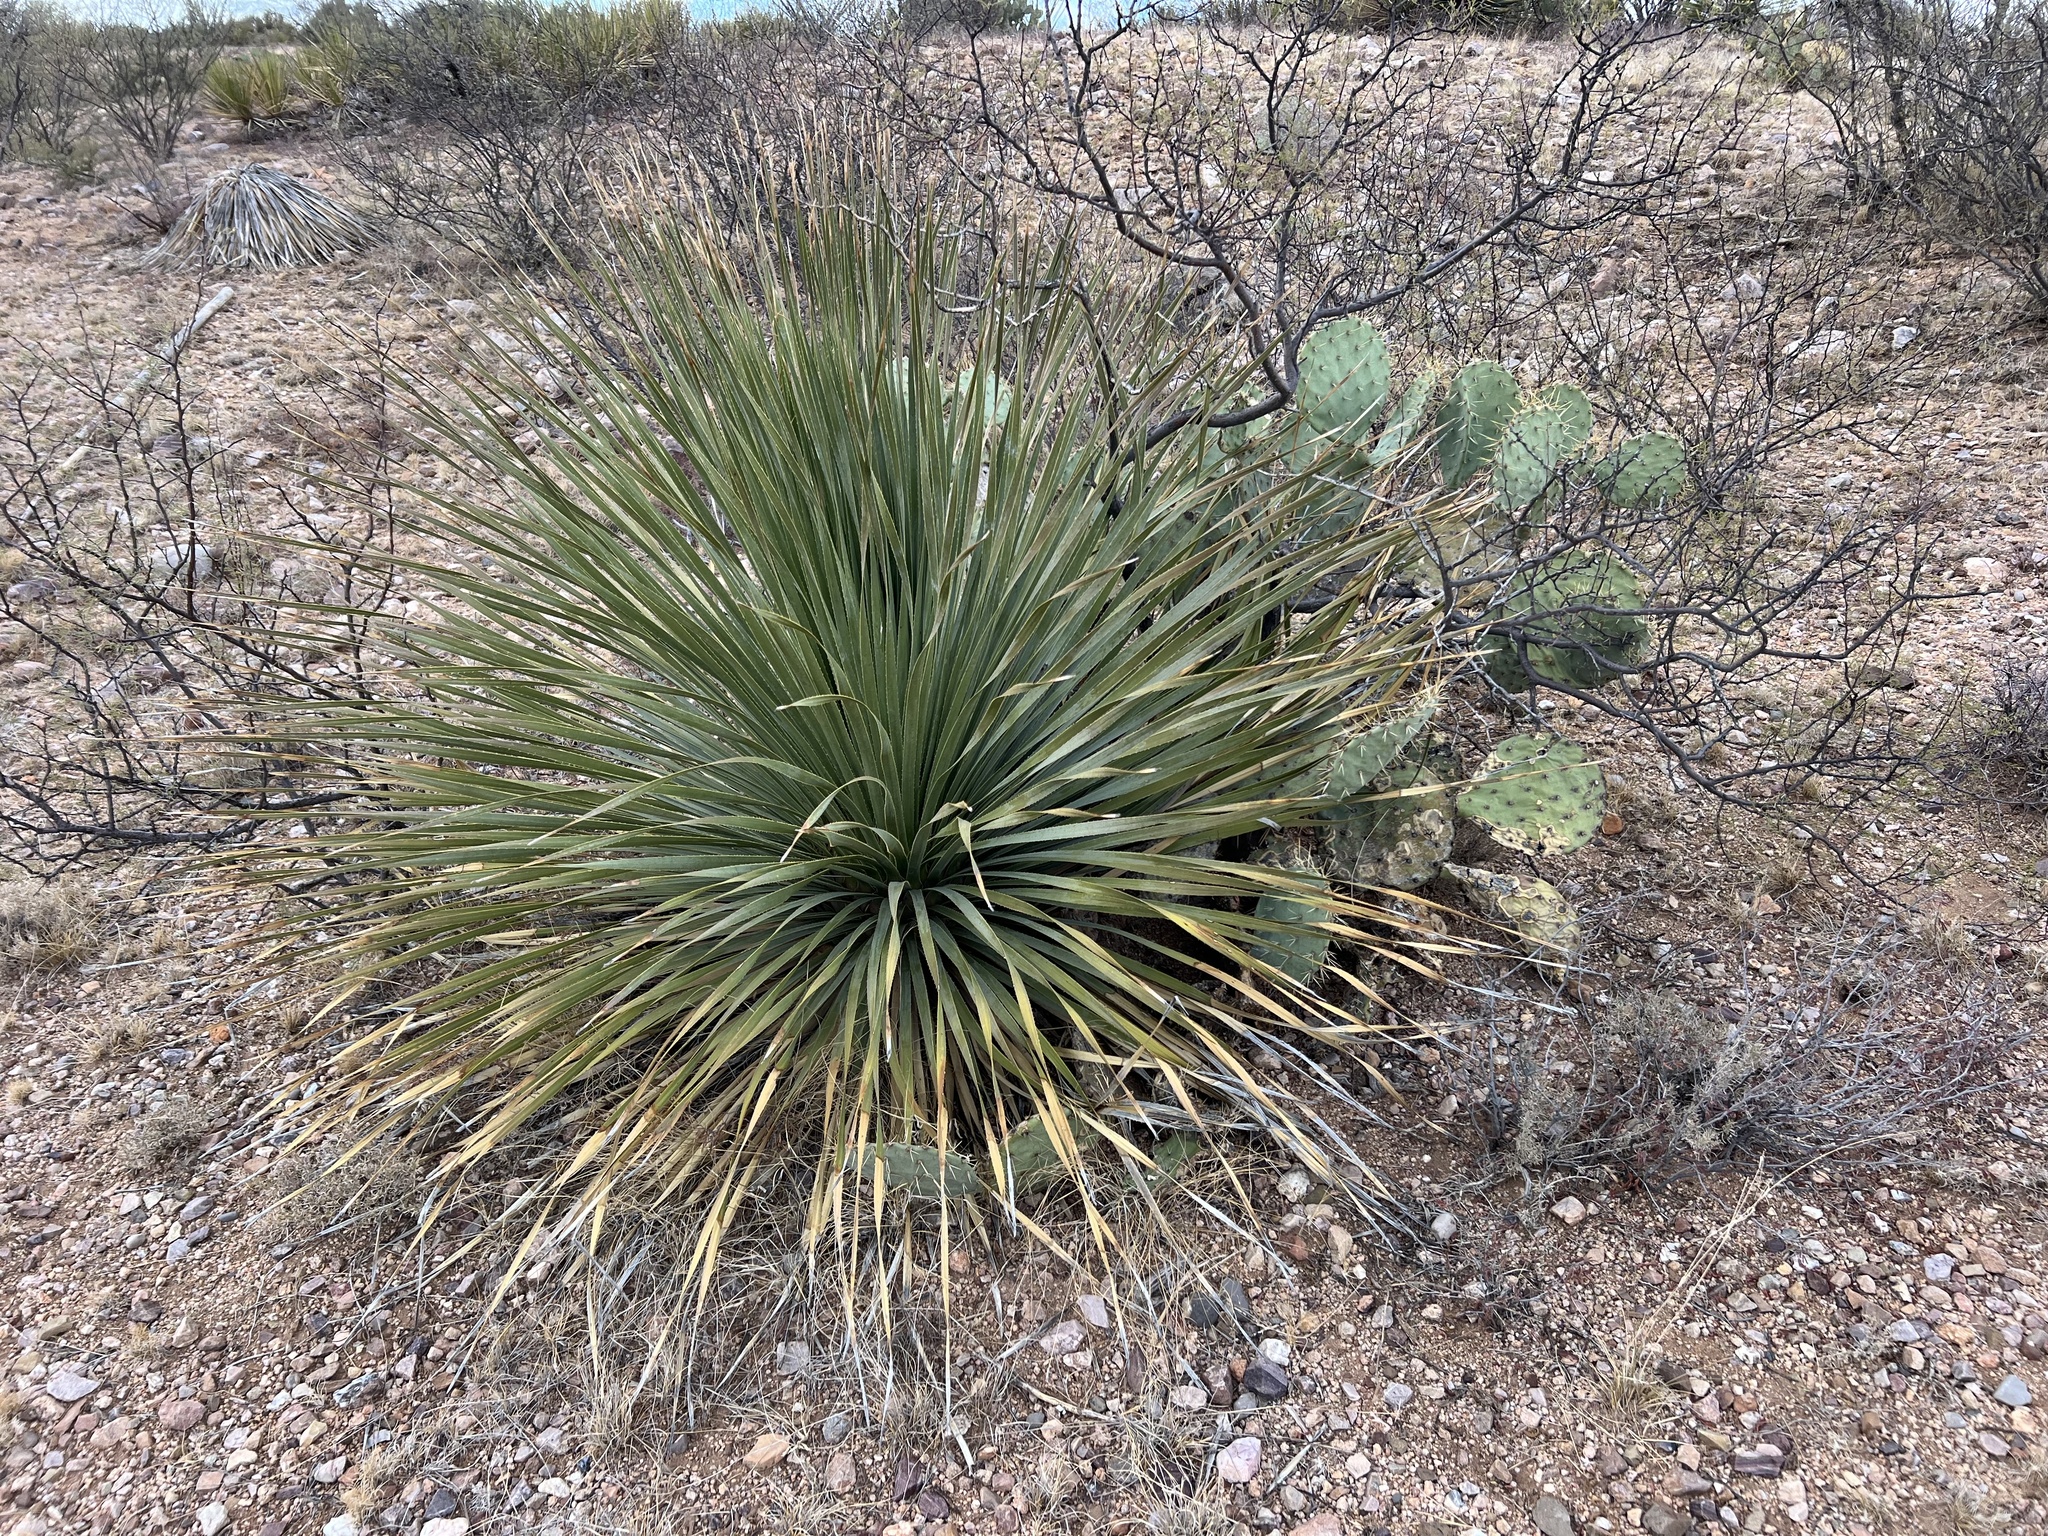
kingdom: Plantae
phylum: Tracheophyta
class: Liliopsida
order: Asparagales
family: Asparagaceae
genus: Dasylirion
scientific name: Dasylirion wheeleri
